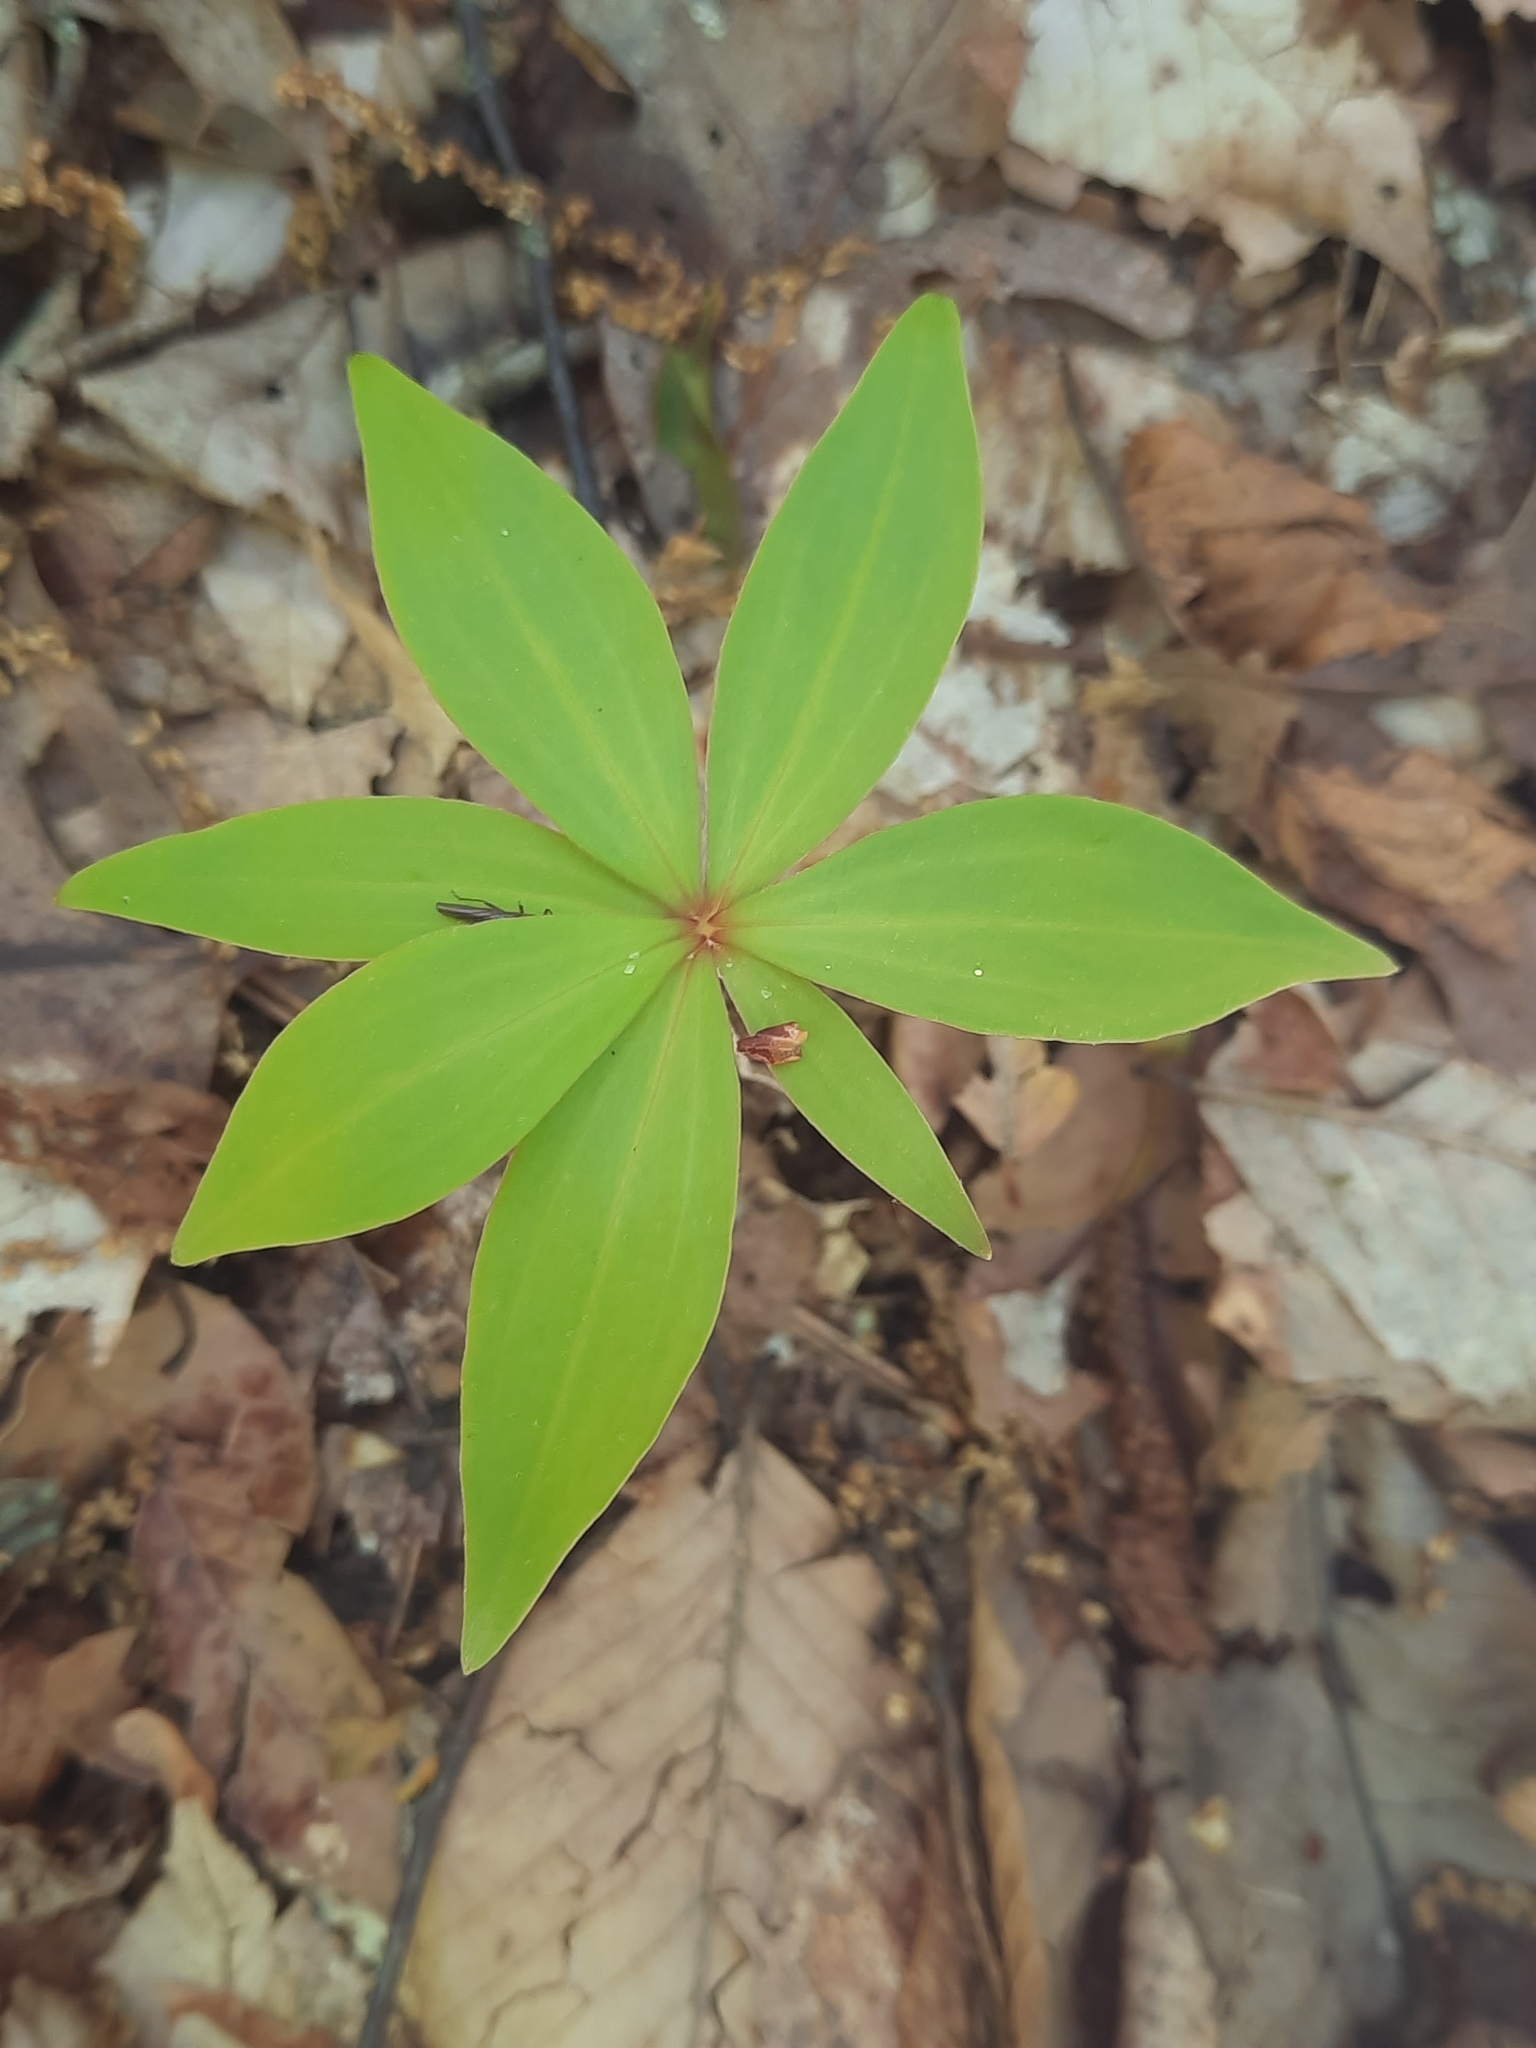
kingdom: Plantae
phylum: Tracheophyta
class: Liliopsida
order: Liliales
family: Liliaceae
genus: Medeola
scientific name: Medeola virginiana
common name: Indian cucumber-root
